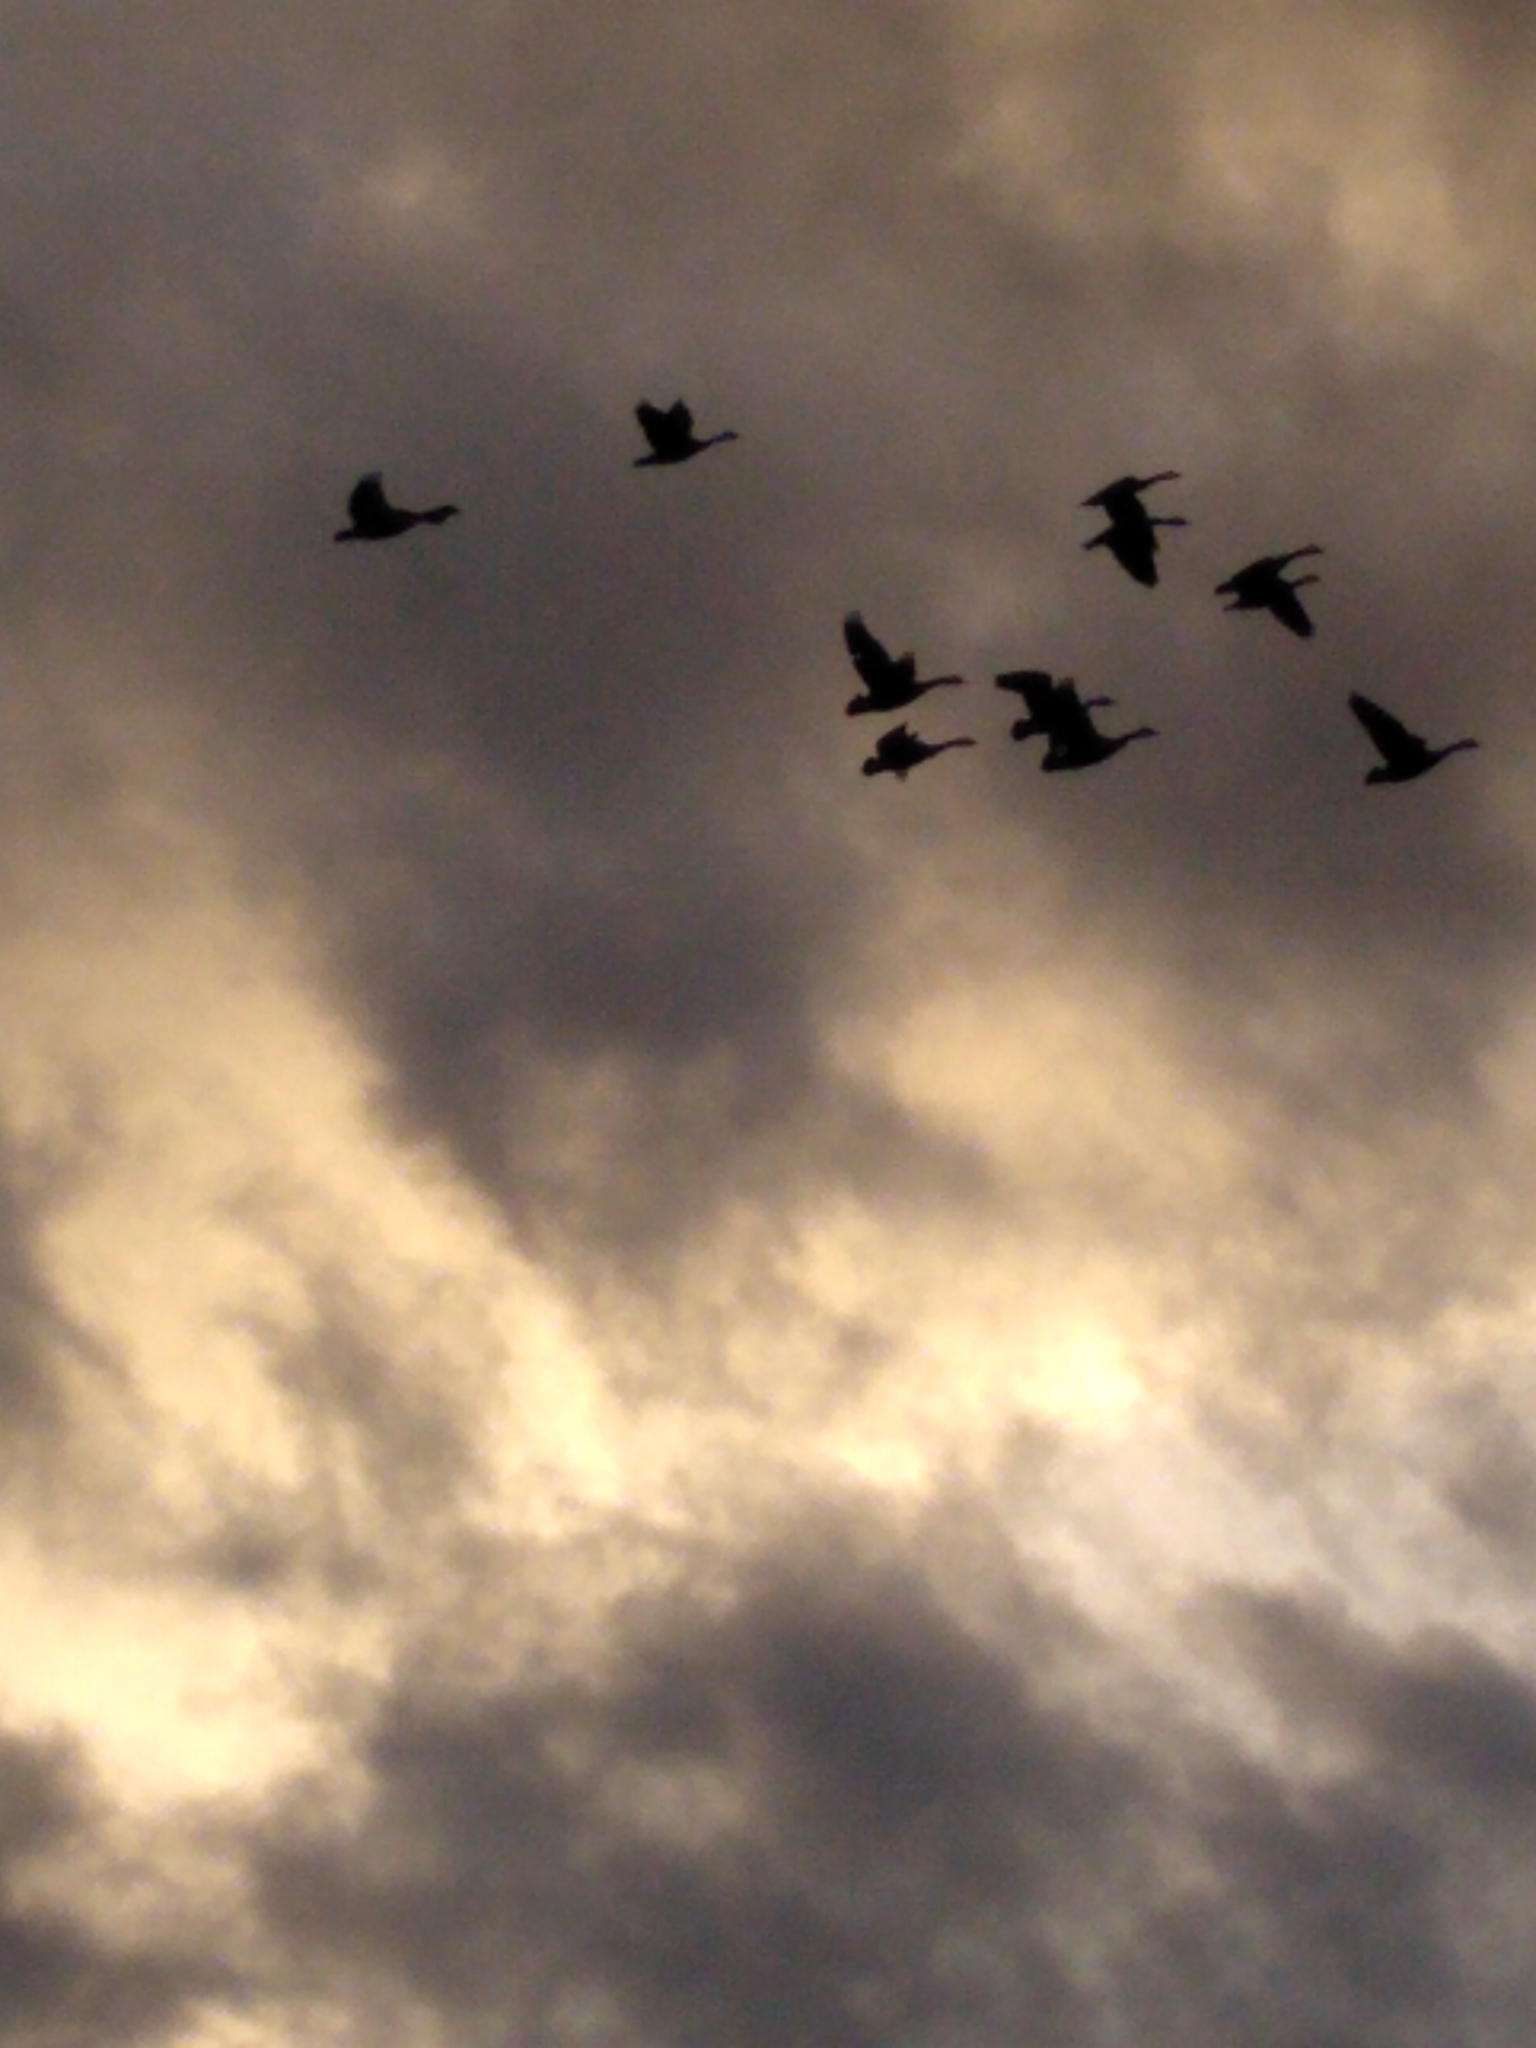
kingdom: Animalia
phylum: Chordata
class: Aves
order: Anseriformes
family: Anatidae
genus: Branta
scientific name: Branta canadensis
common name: Canada goose
